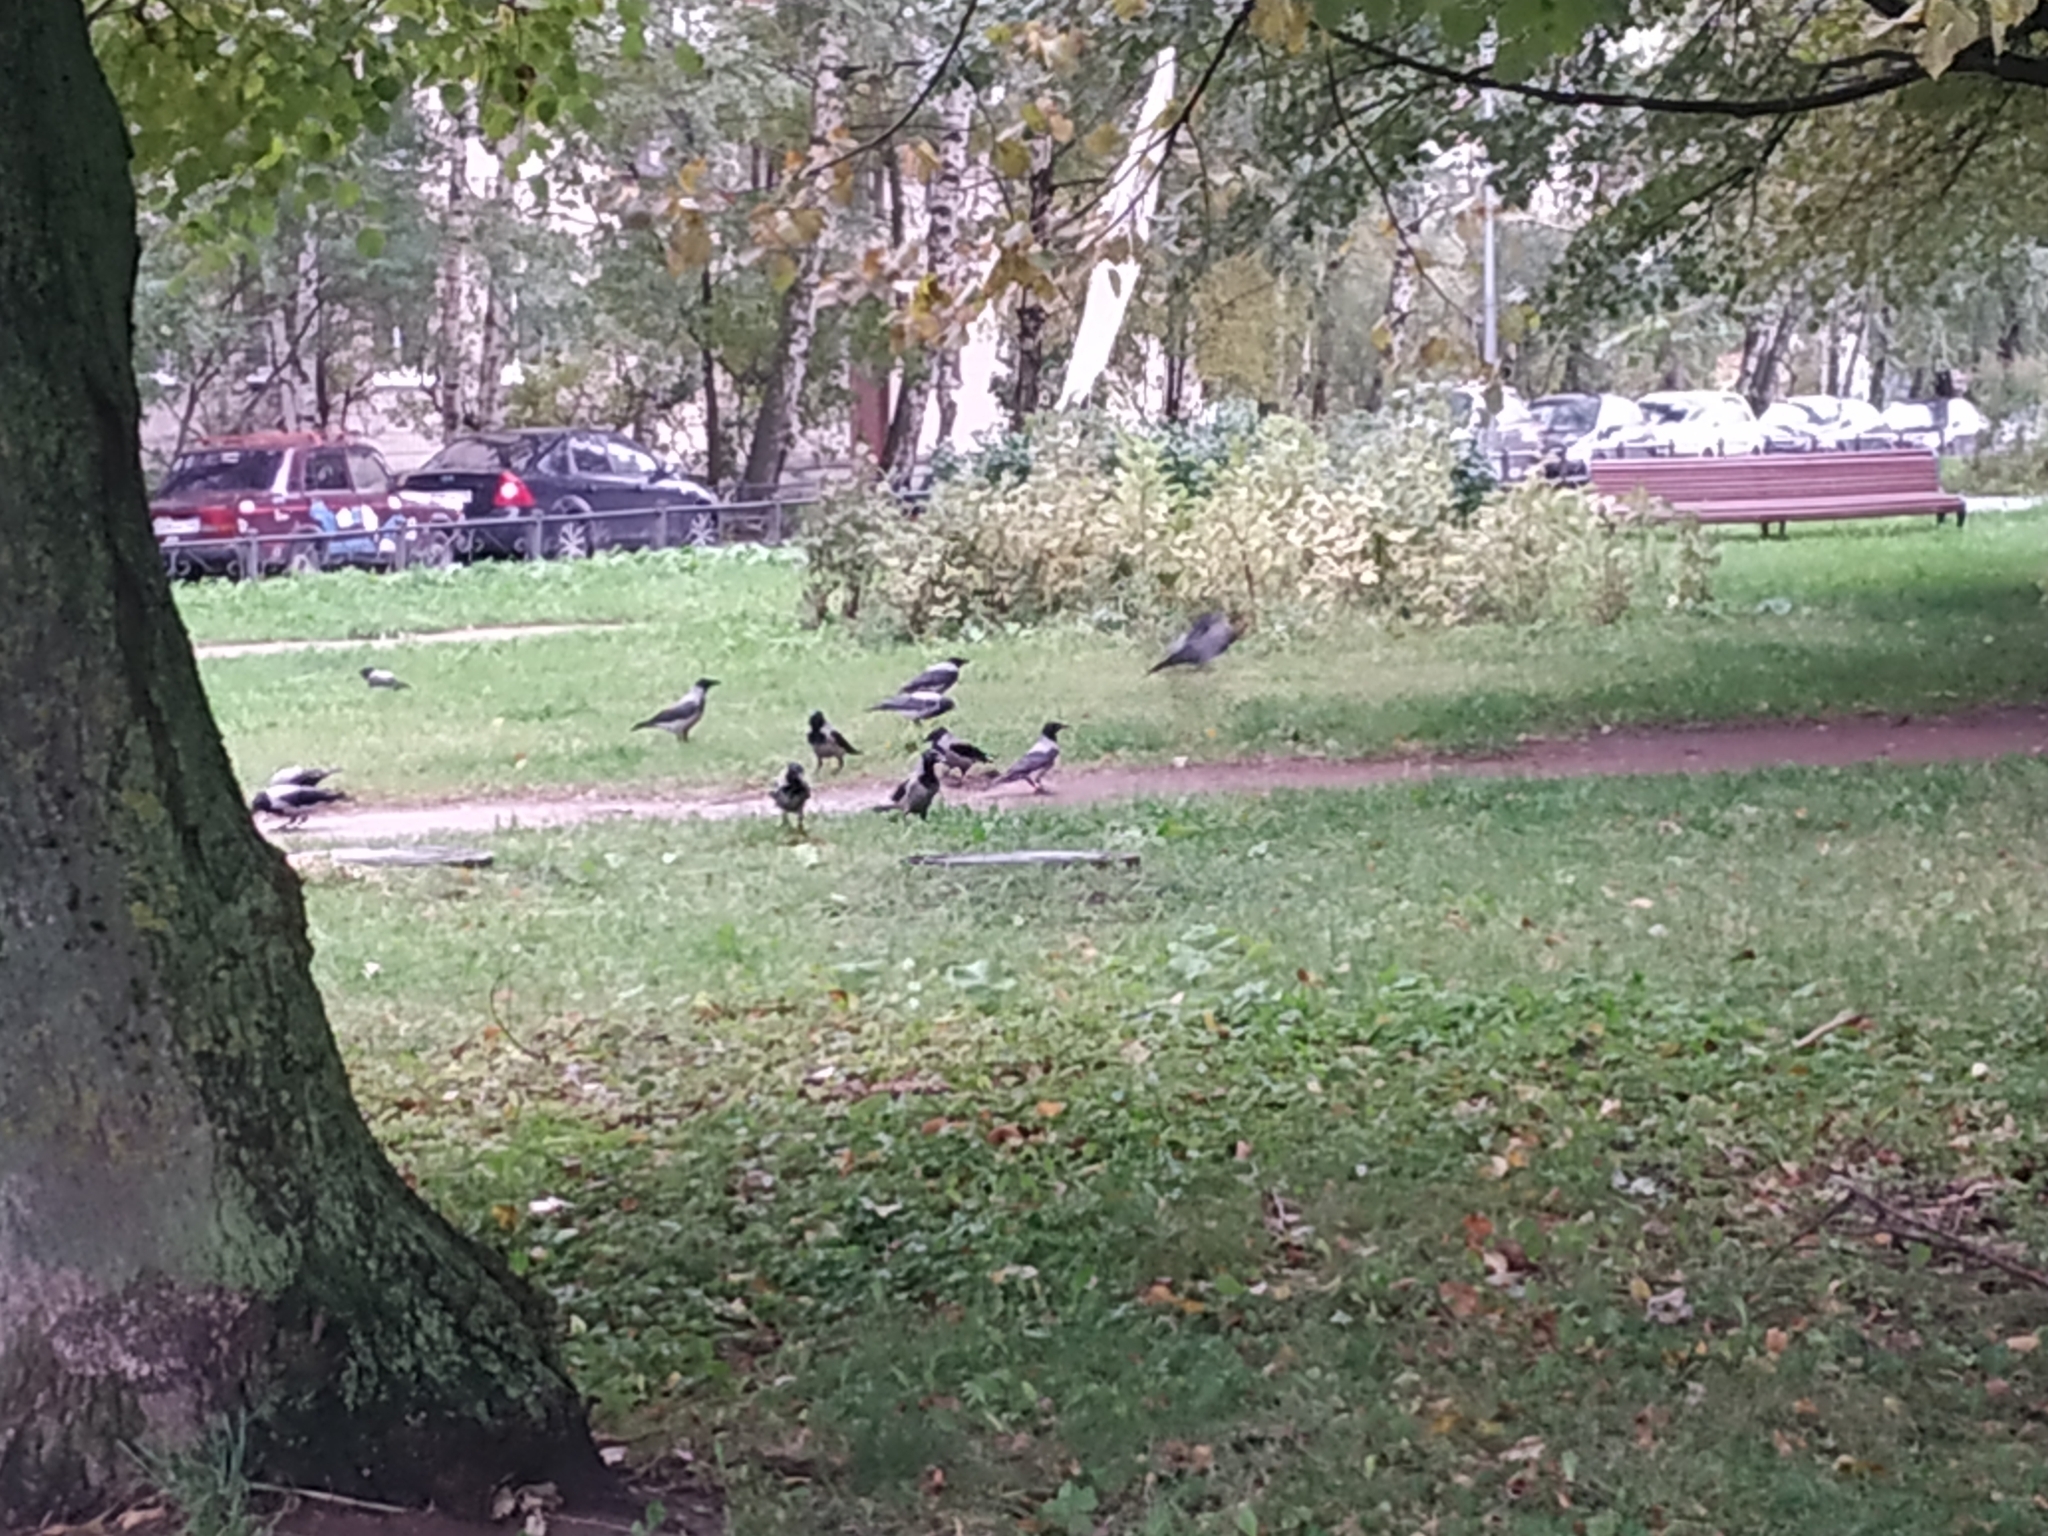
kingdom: Animalia
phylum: Chordata
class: Aves
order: Passeriformes
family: Corvidae
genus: Corvus
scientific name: Corvus cornix
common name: Hooded crow
